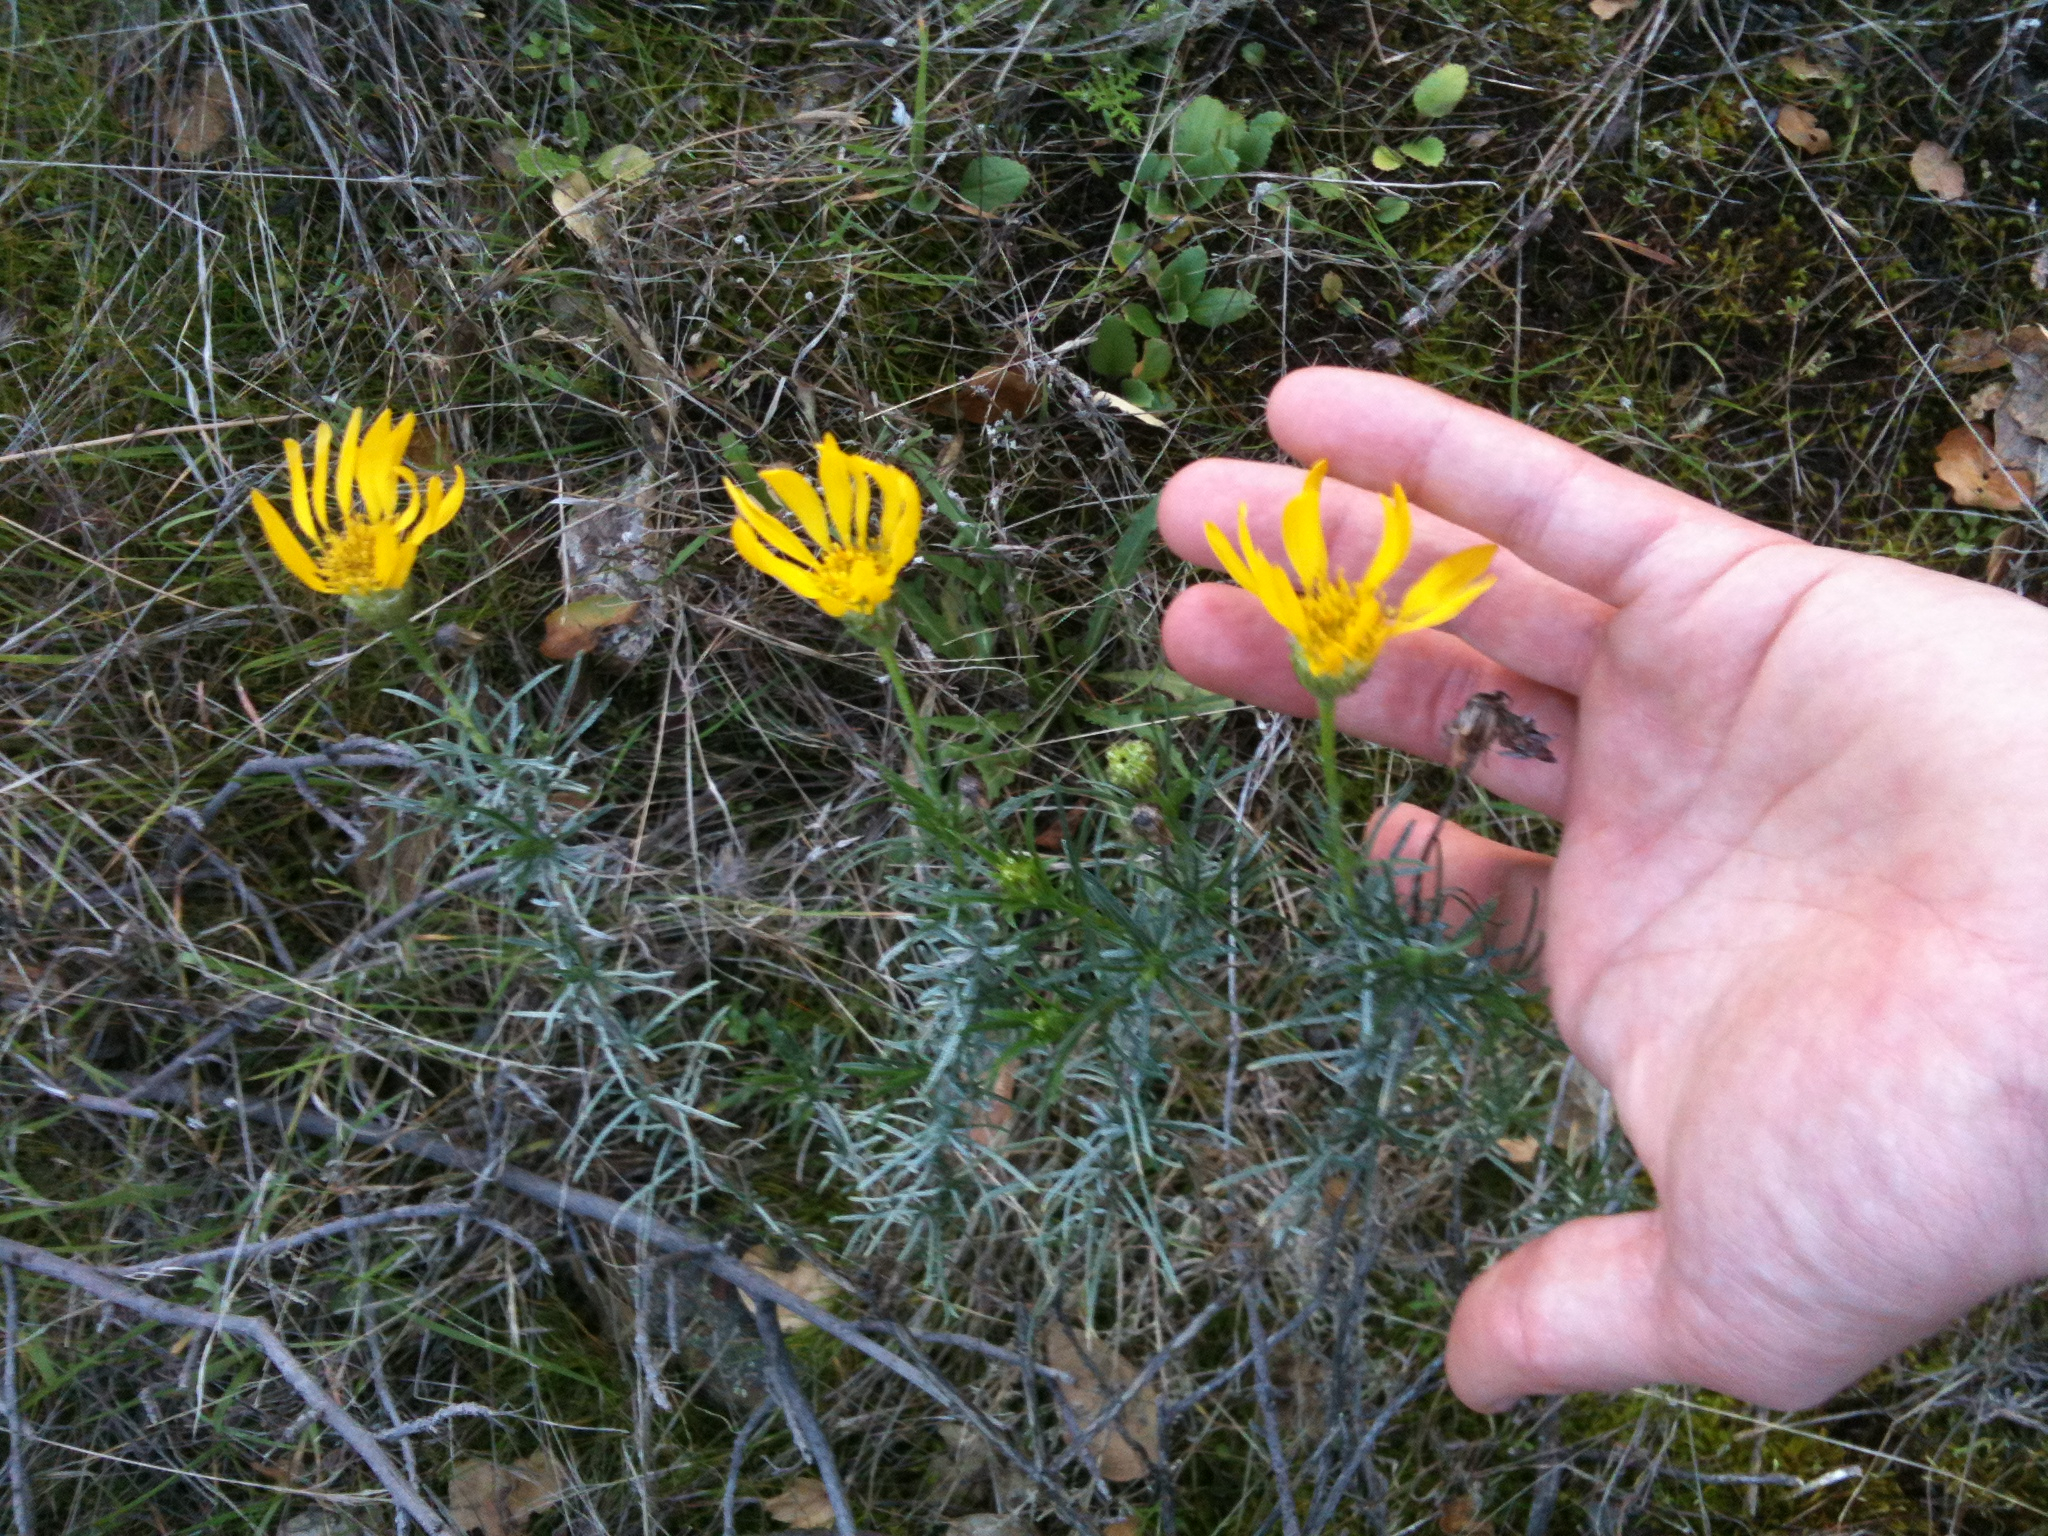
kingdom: Plantae
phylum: Tracheophyta
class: Magnoliopsida
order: Asterales
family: Asteraceae
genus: Ericameria
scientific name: Ericameria linearifolia
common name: Interior goldenbush
